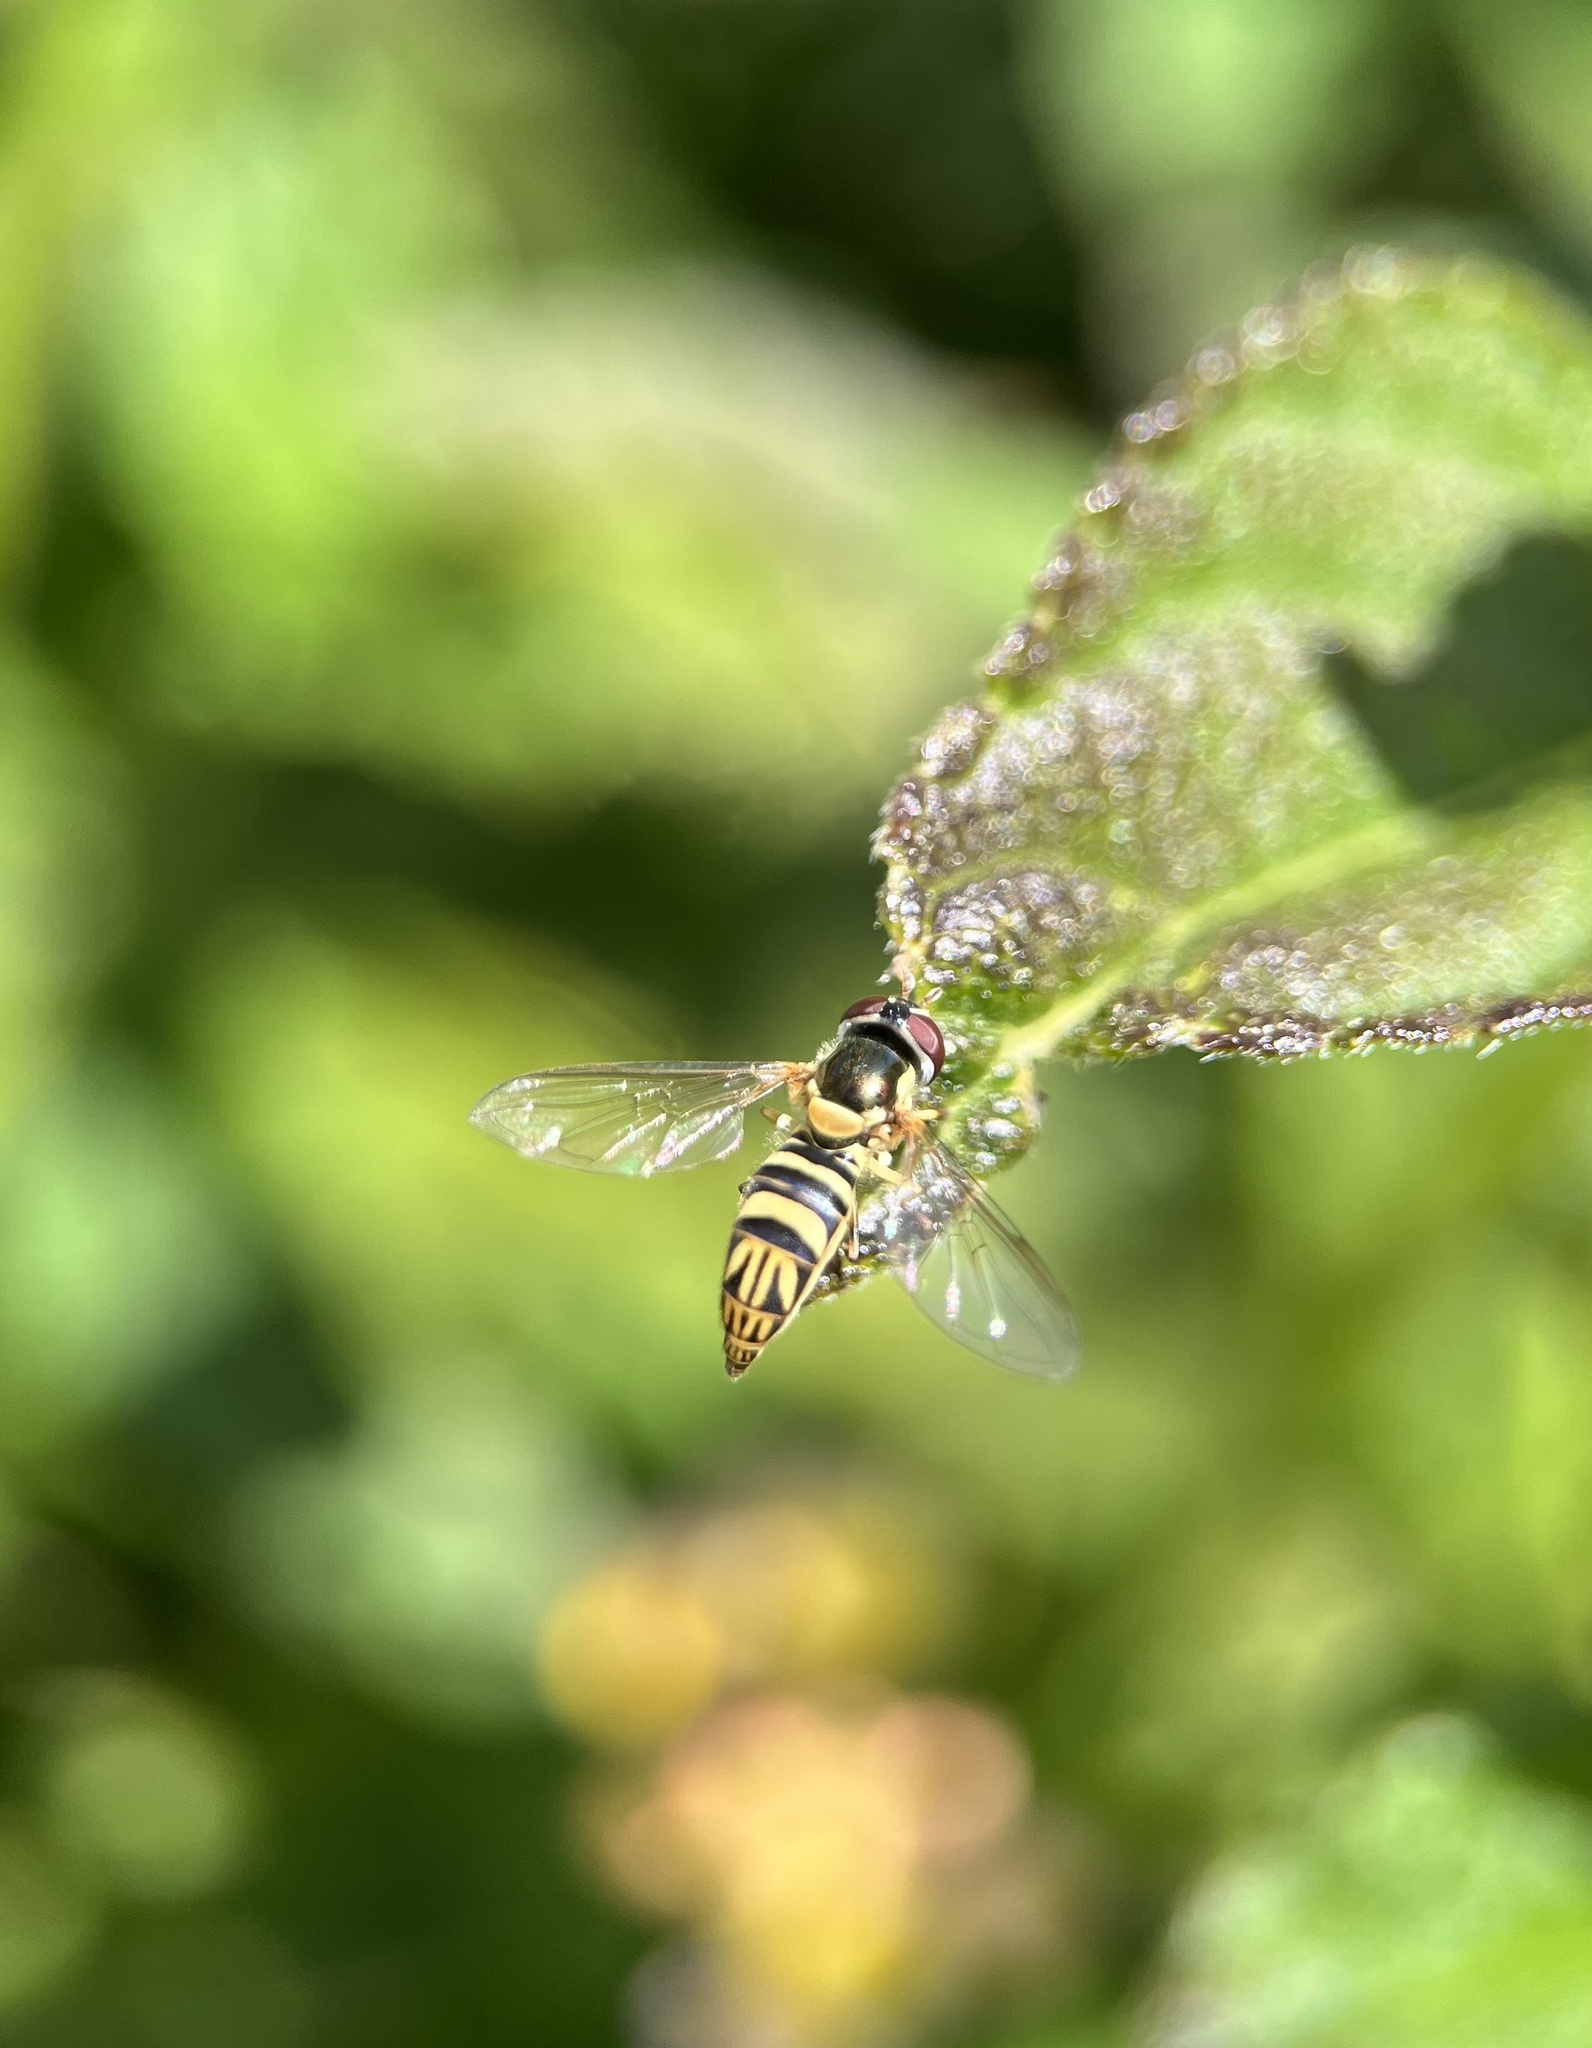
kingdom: Animalia
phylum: Arthropoda
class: Insecta
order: Diptera
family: Syrphidae
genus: Allograpta
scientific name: Allograpta obliqua
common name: Common oblique syrphid
